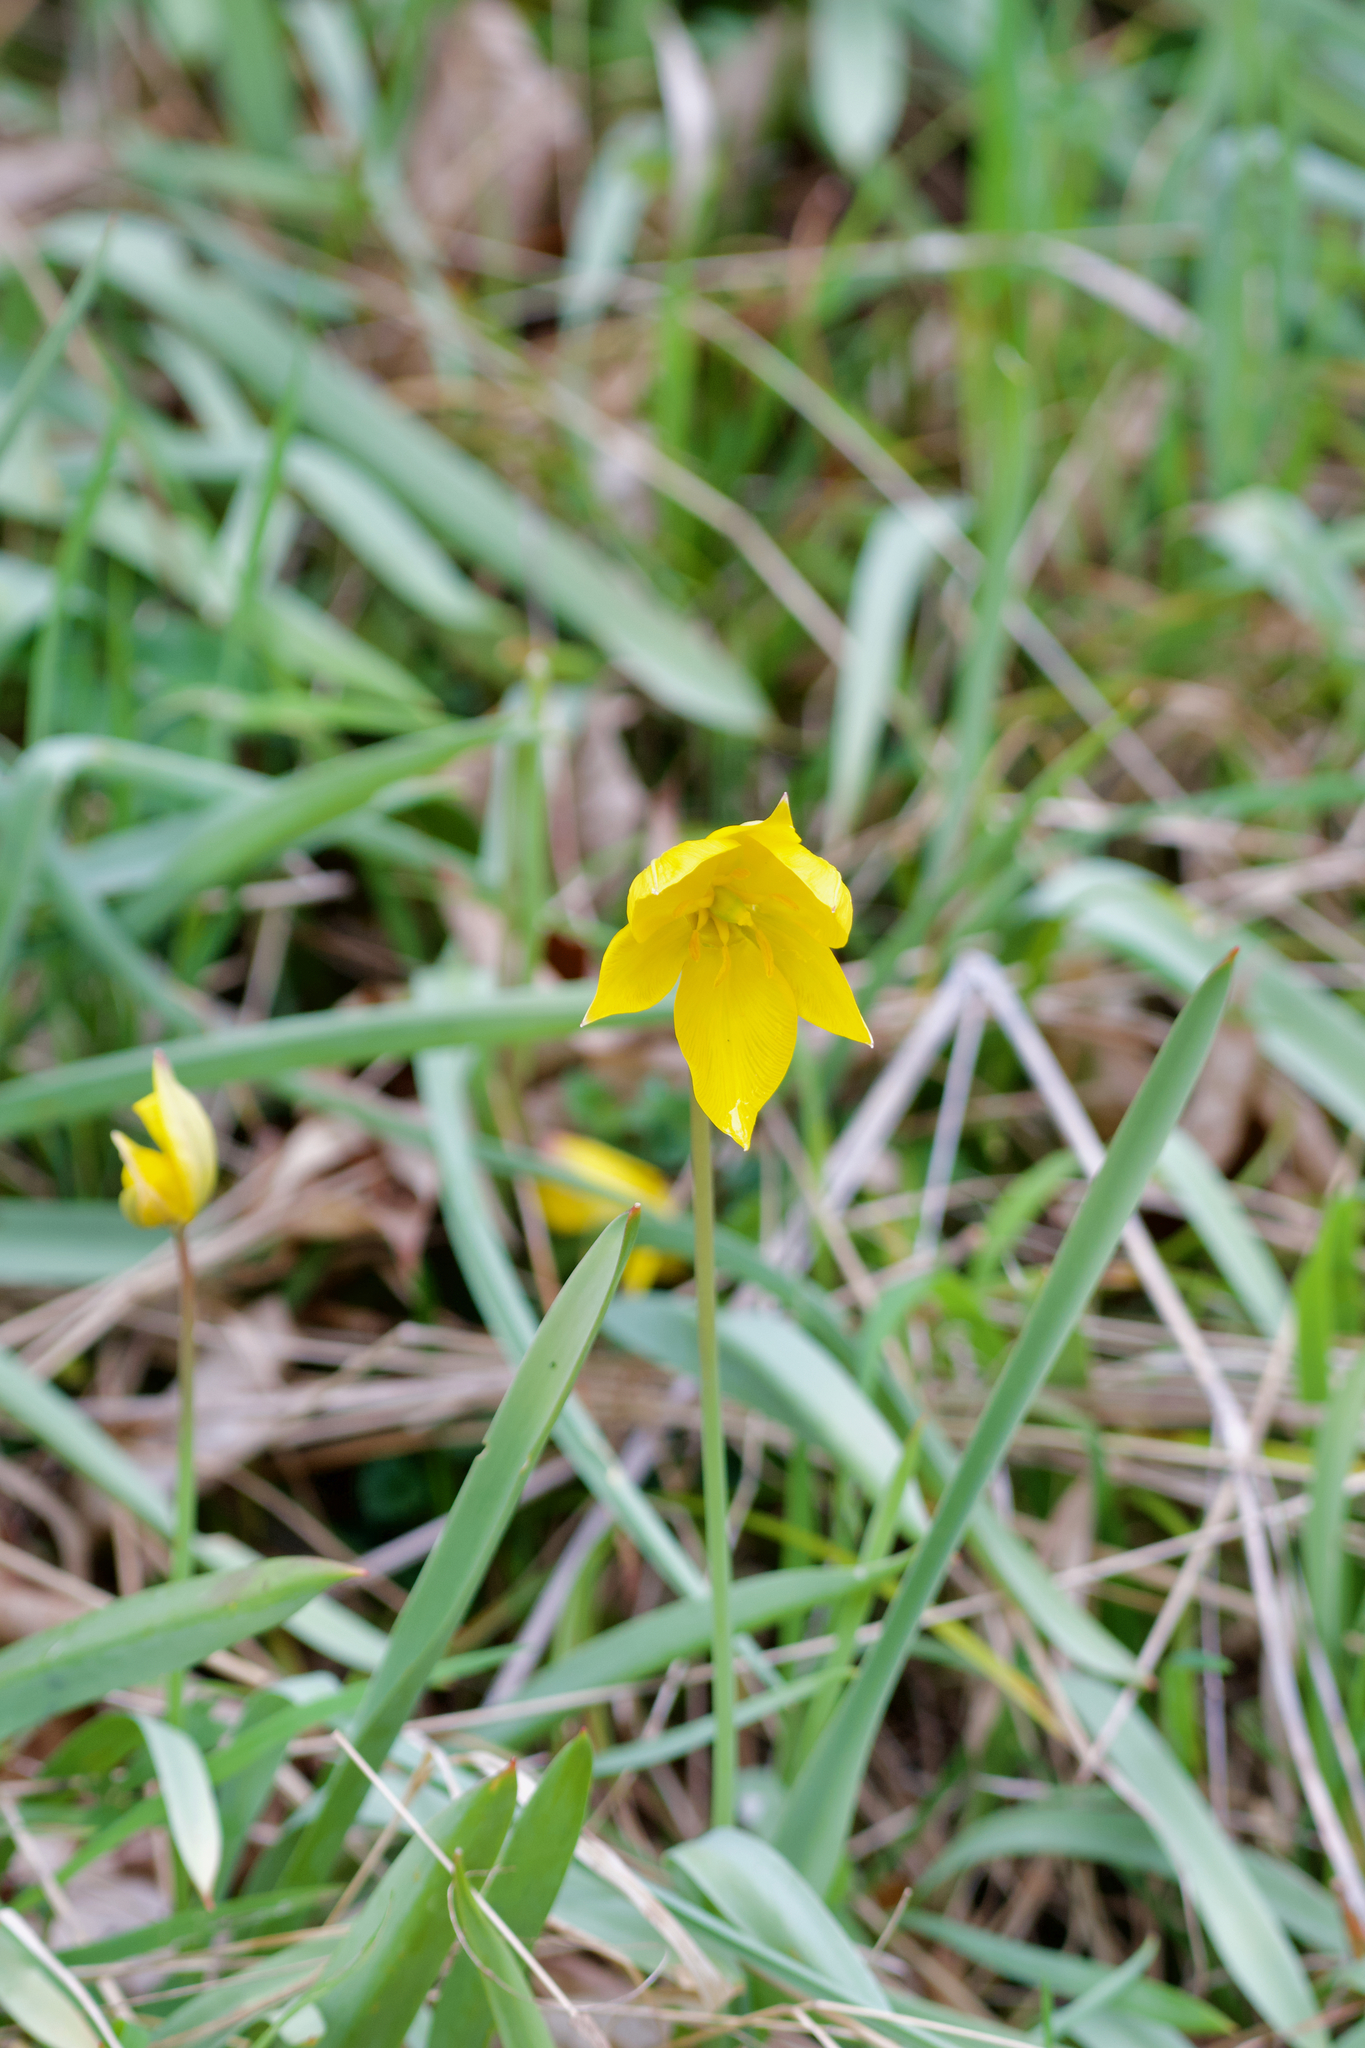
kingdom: Plantae
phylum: Tracheophyta
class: Liliopsida
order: Liliales
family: Liliaceae
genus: Tulipa
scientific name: Tulipa sylvestris
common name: Wild tulip
